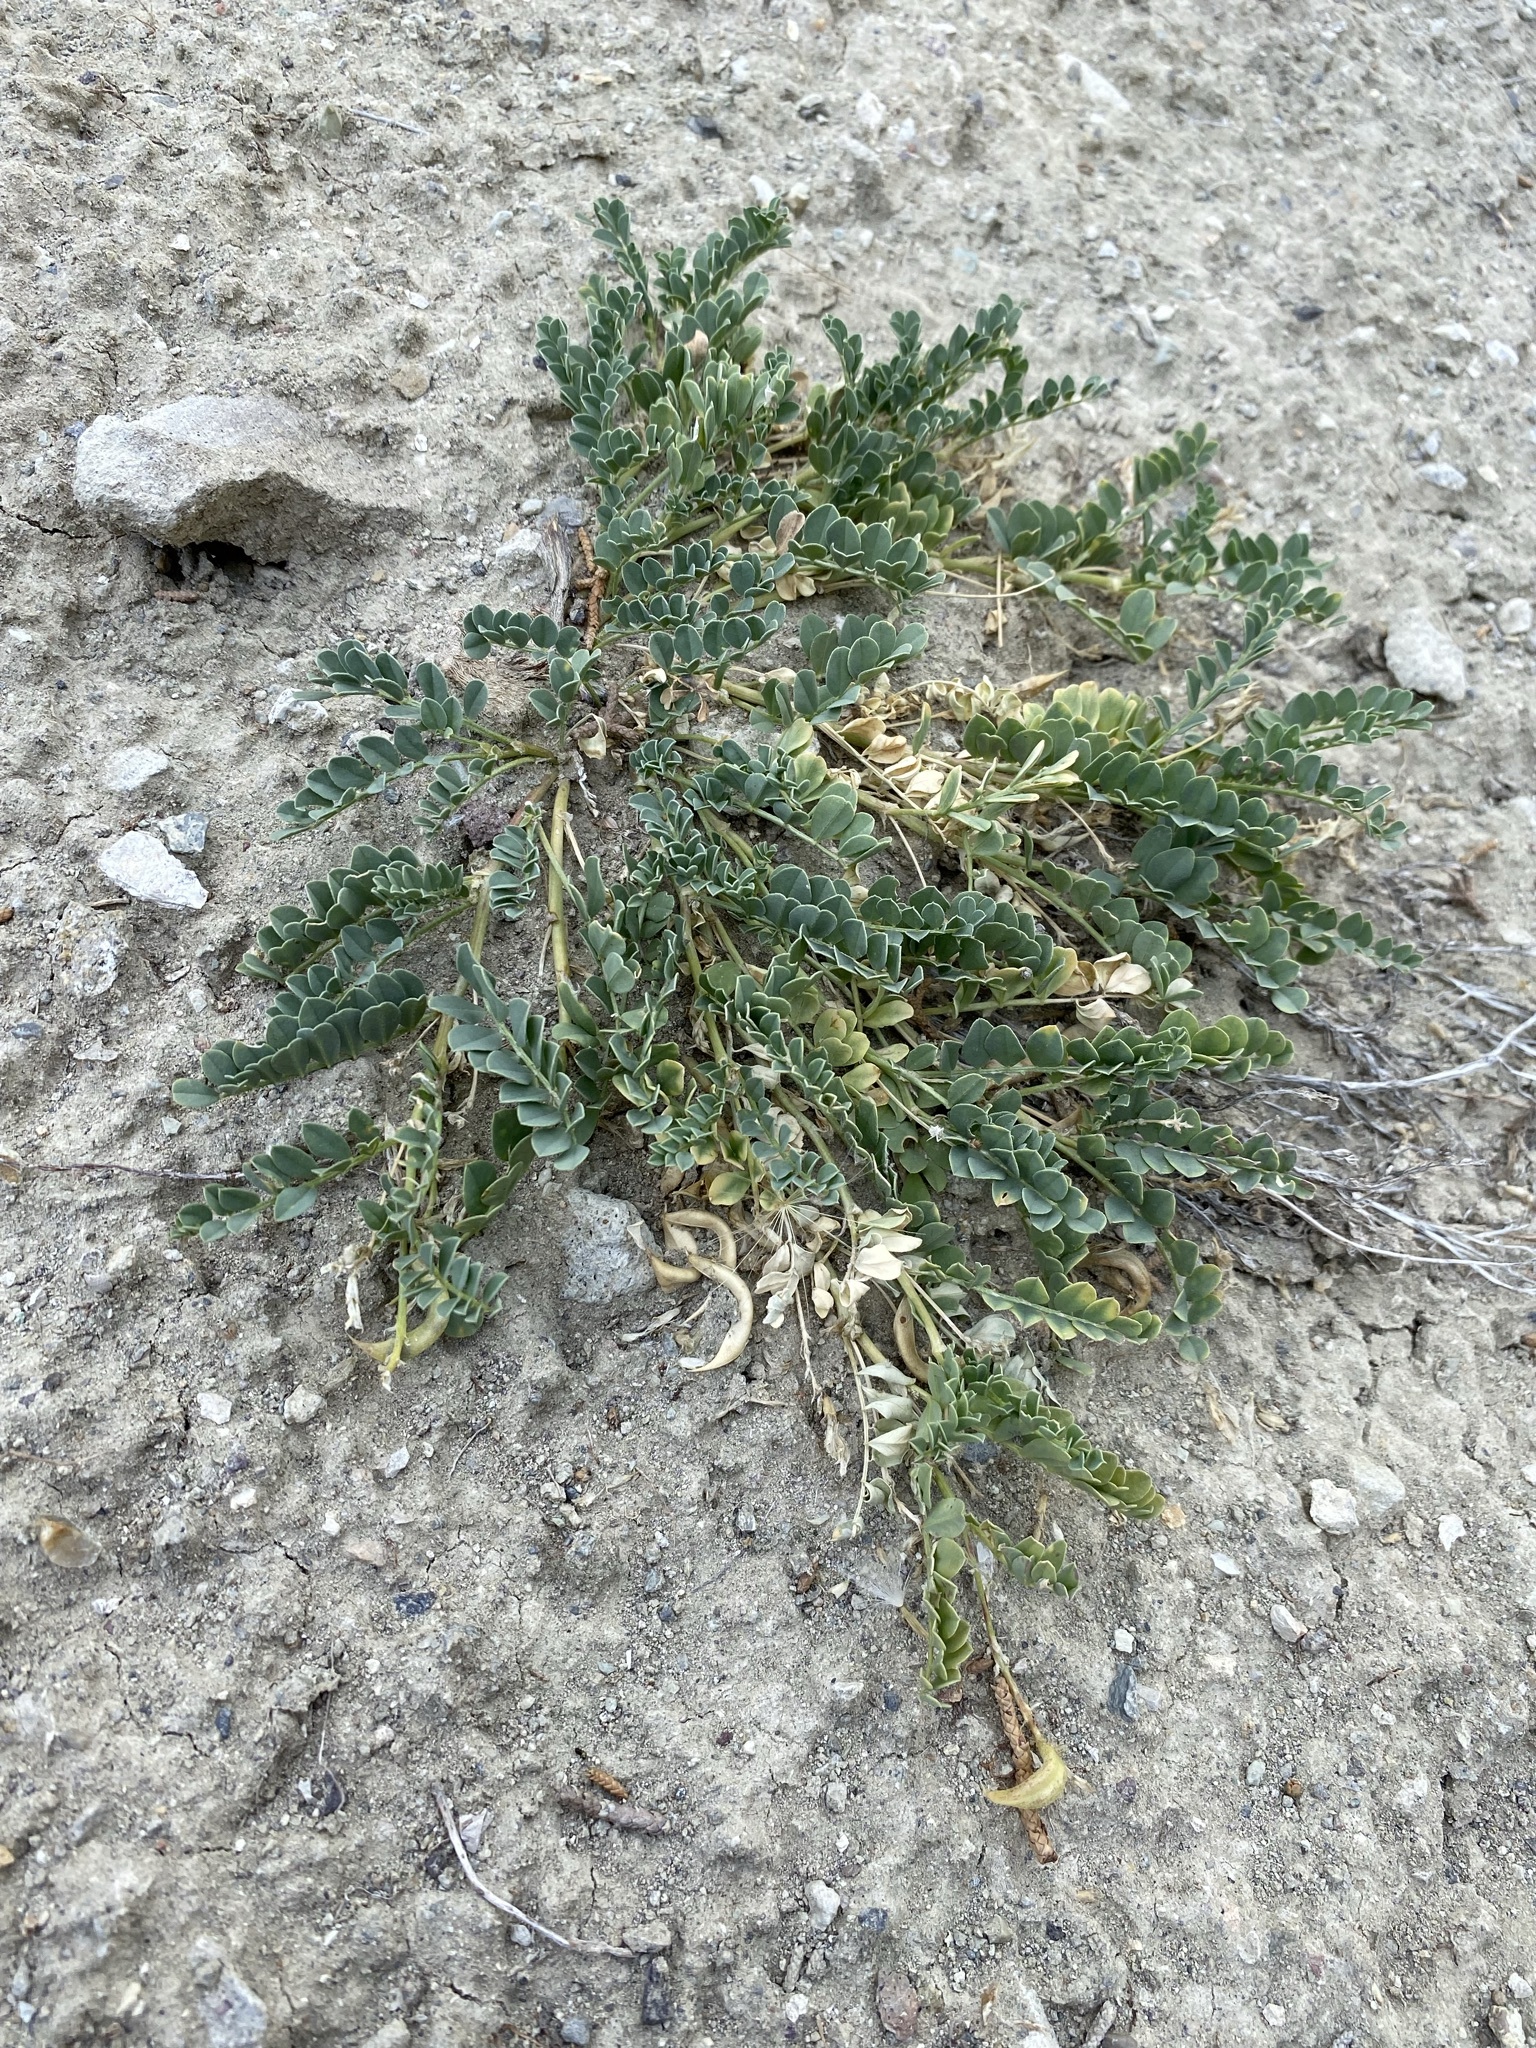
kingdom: Plantae
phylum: Tracheophyta
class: Magnoliopsida
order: Fabales
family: Fabaceae
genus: Astragalus
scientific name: Astragalus lentiginosus
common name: Freckled milkvetch
